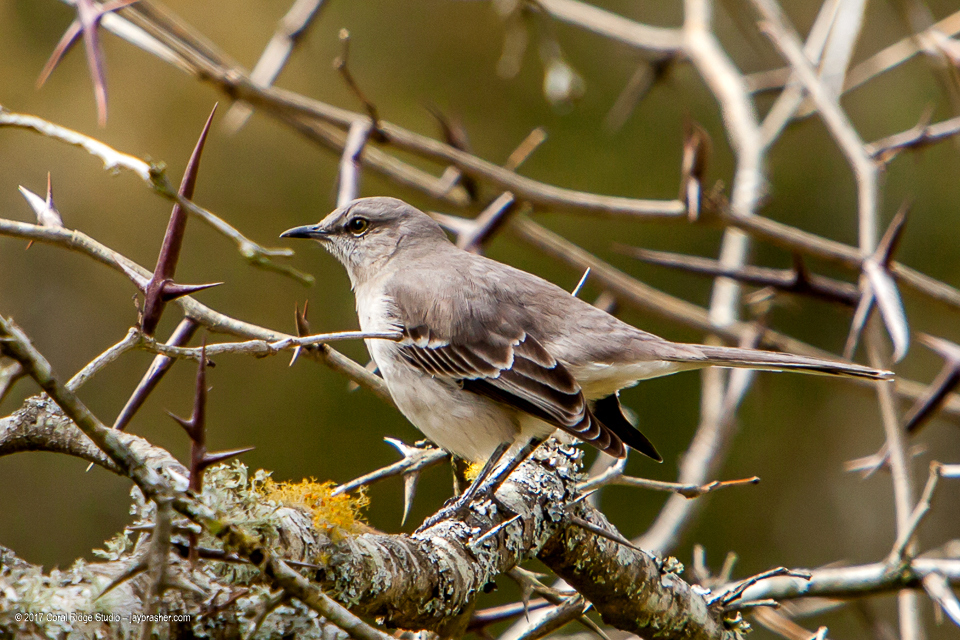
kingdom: Animalia
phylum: Chordata
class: Aves
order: Passeriformes
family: Mimidae
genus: Mimus
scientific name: Mimus polyglottos
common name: Northern mockingbird
